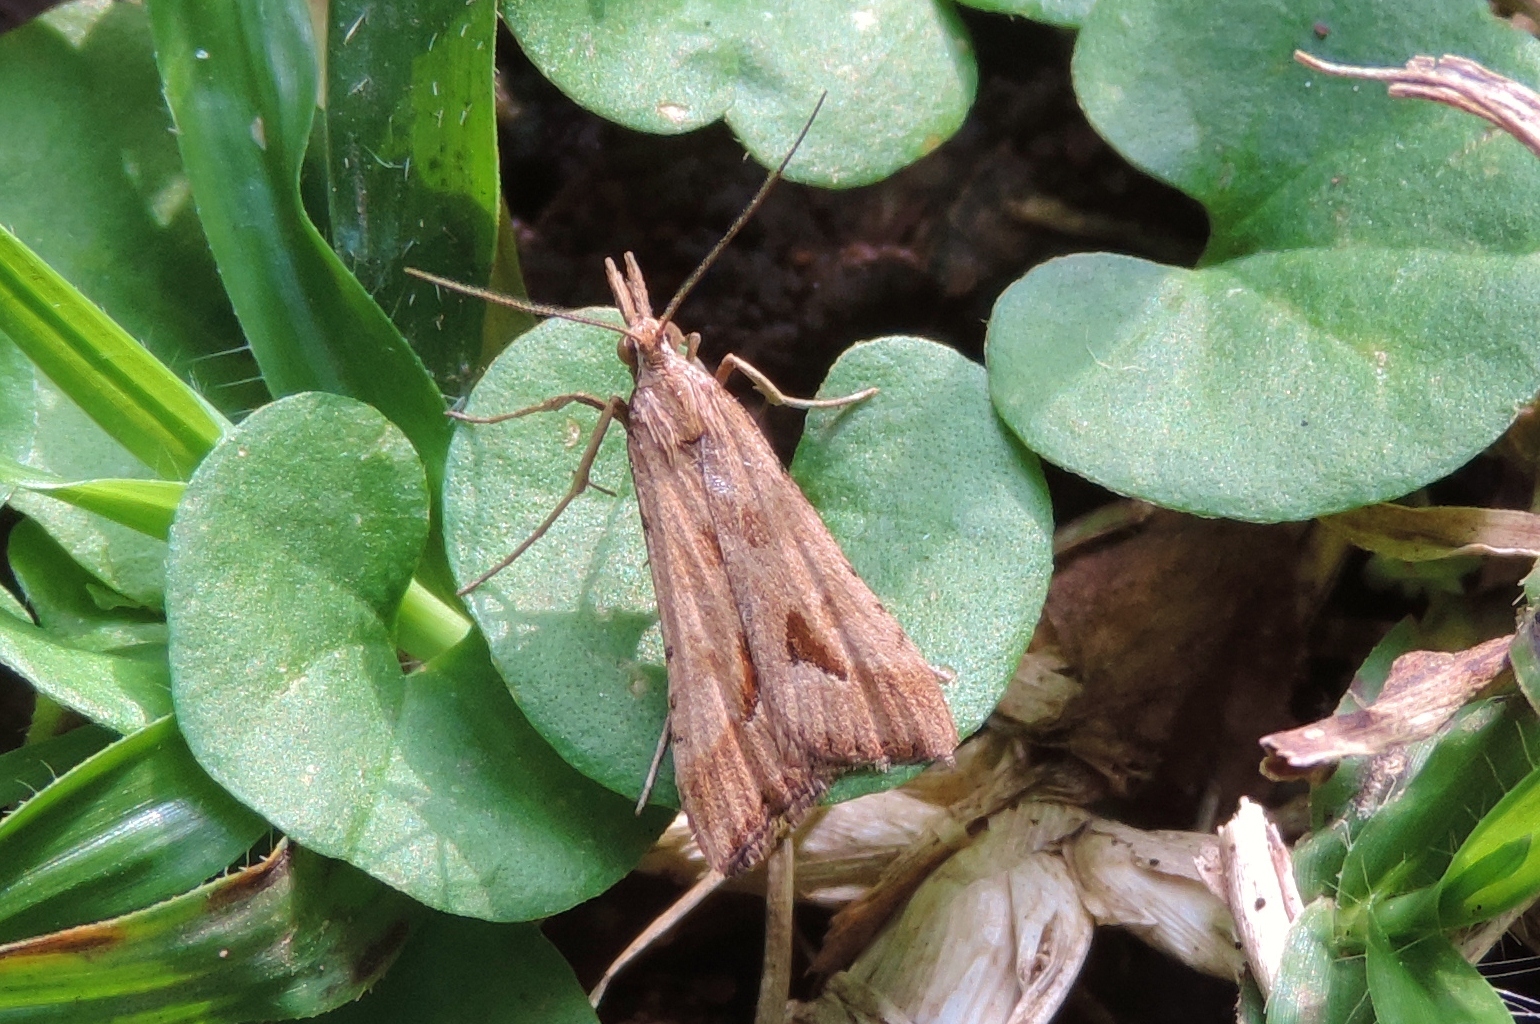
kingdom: Animalia
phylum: Arthropoda
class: Insecta
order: Lepidoptera
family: Crambidae
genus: Diasemia
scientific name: Diasemia monostigma
